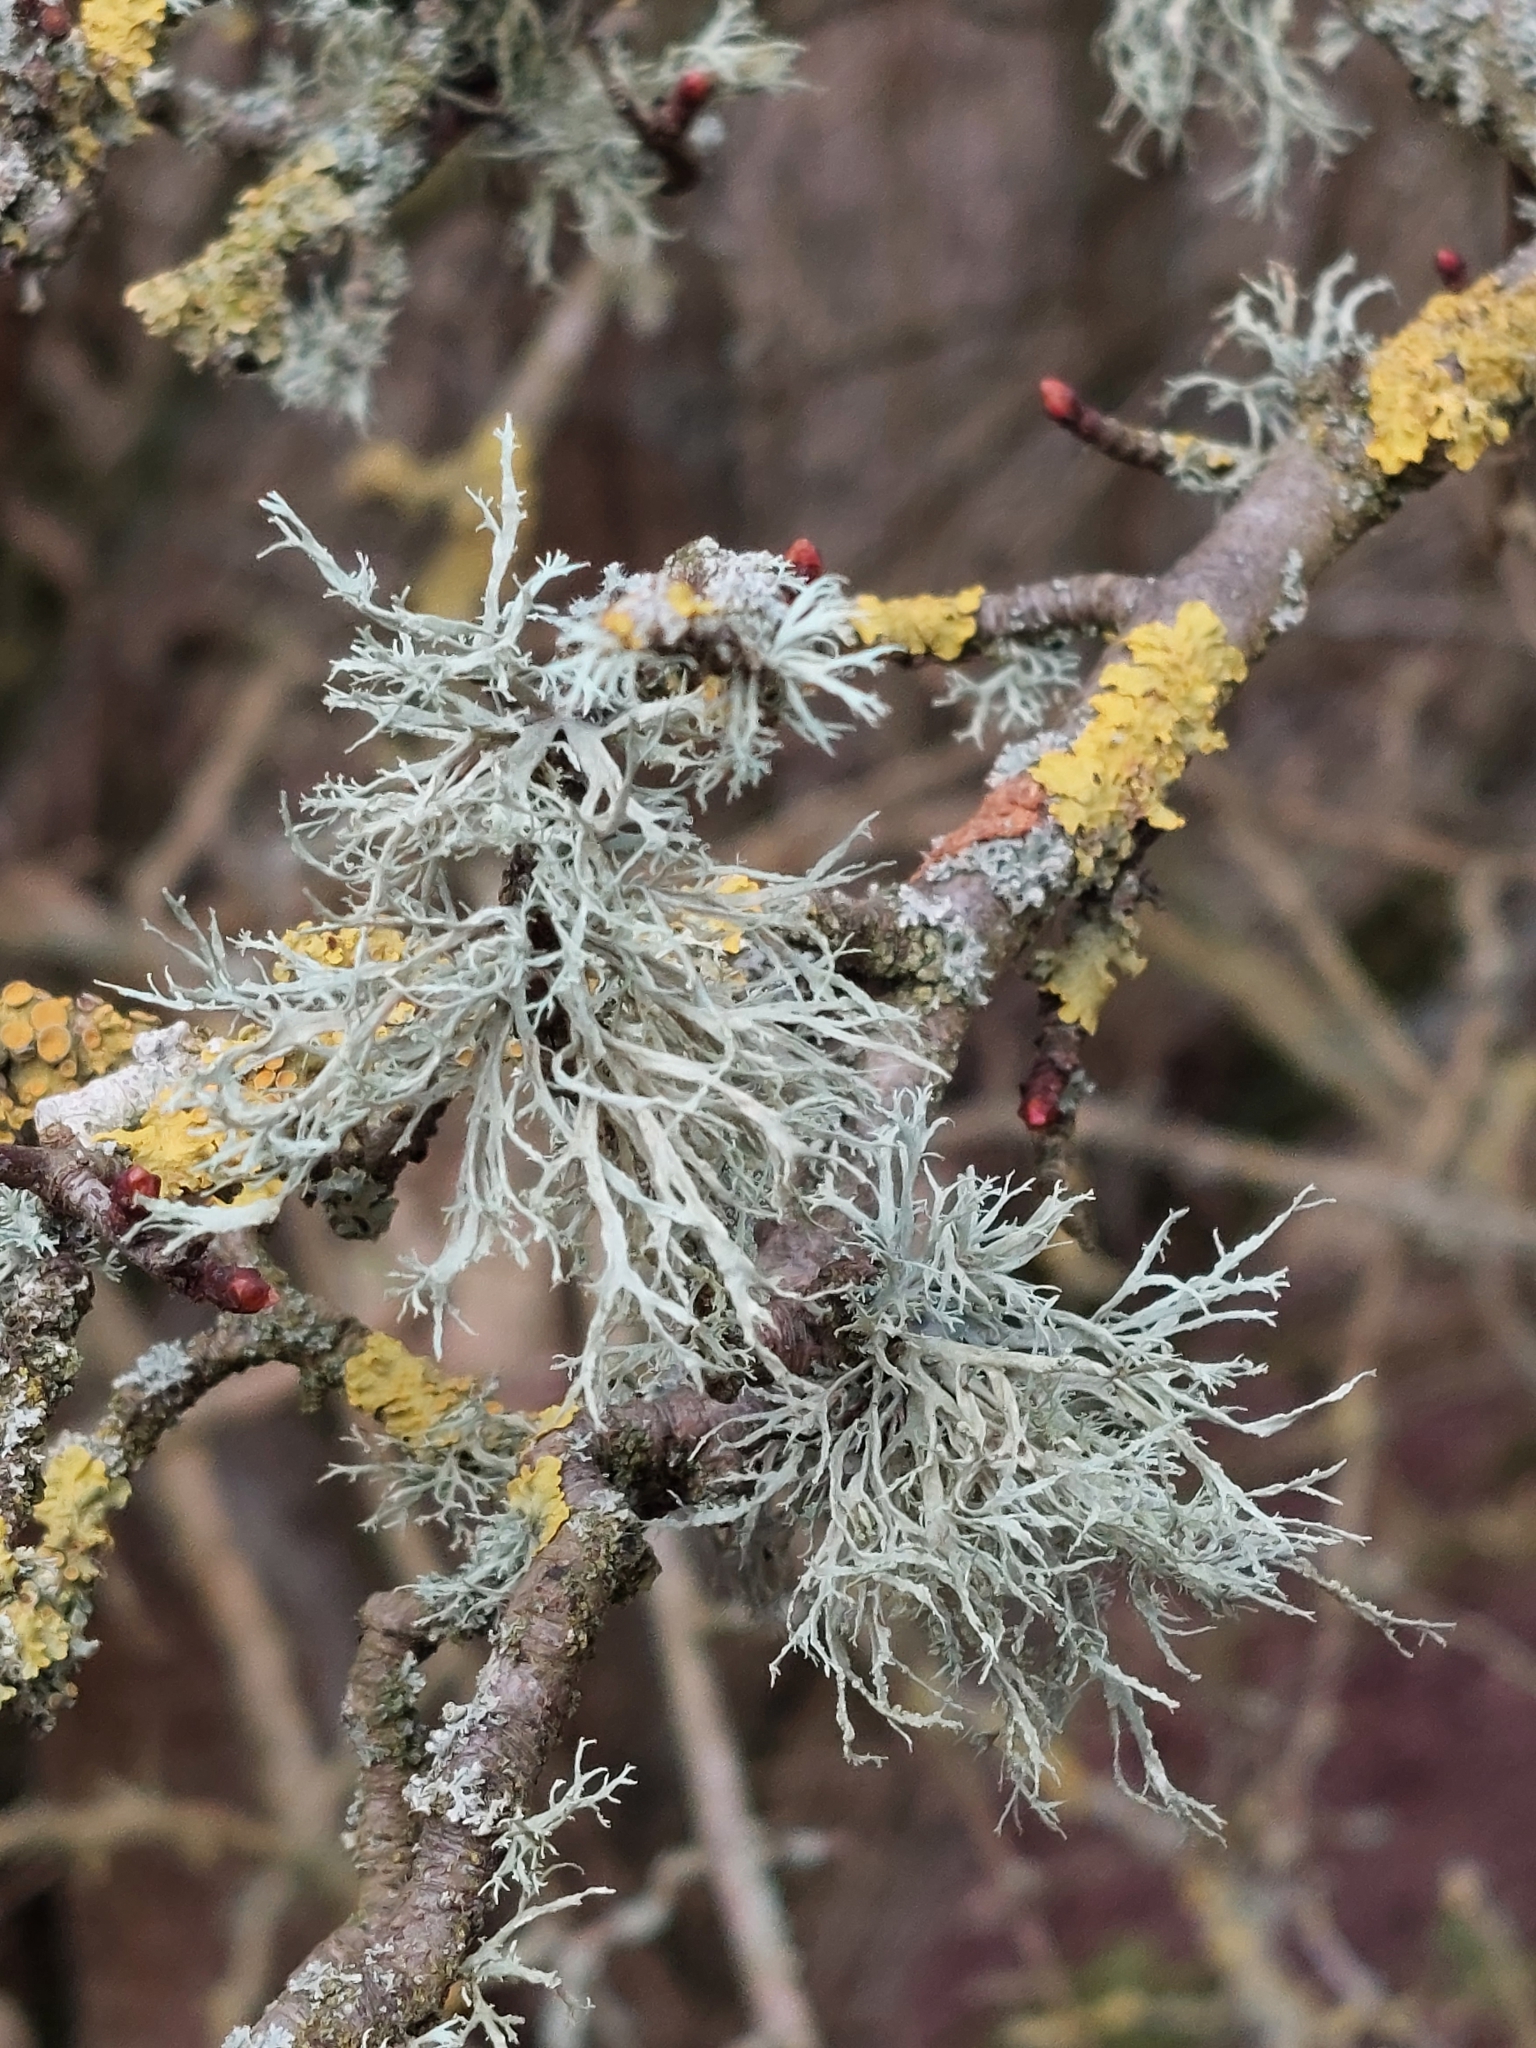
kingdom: Fungi
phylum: Ascomycota
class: Lecanoromycetes
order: Lecanorales
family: Ramalinaceae
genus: Ramalina
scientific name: Ramalina farinacea
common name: Farinose cartilage lichen
